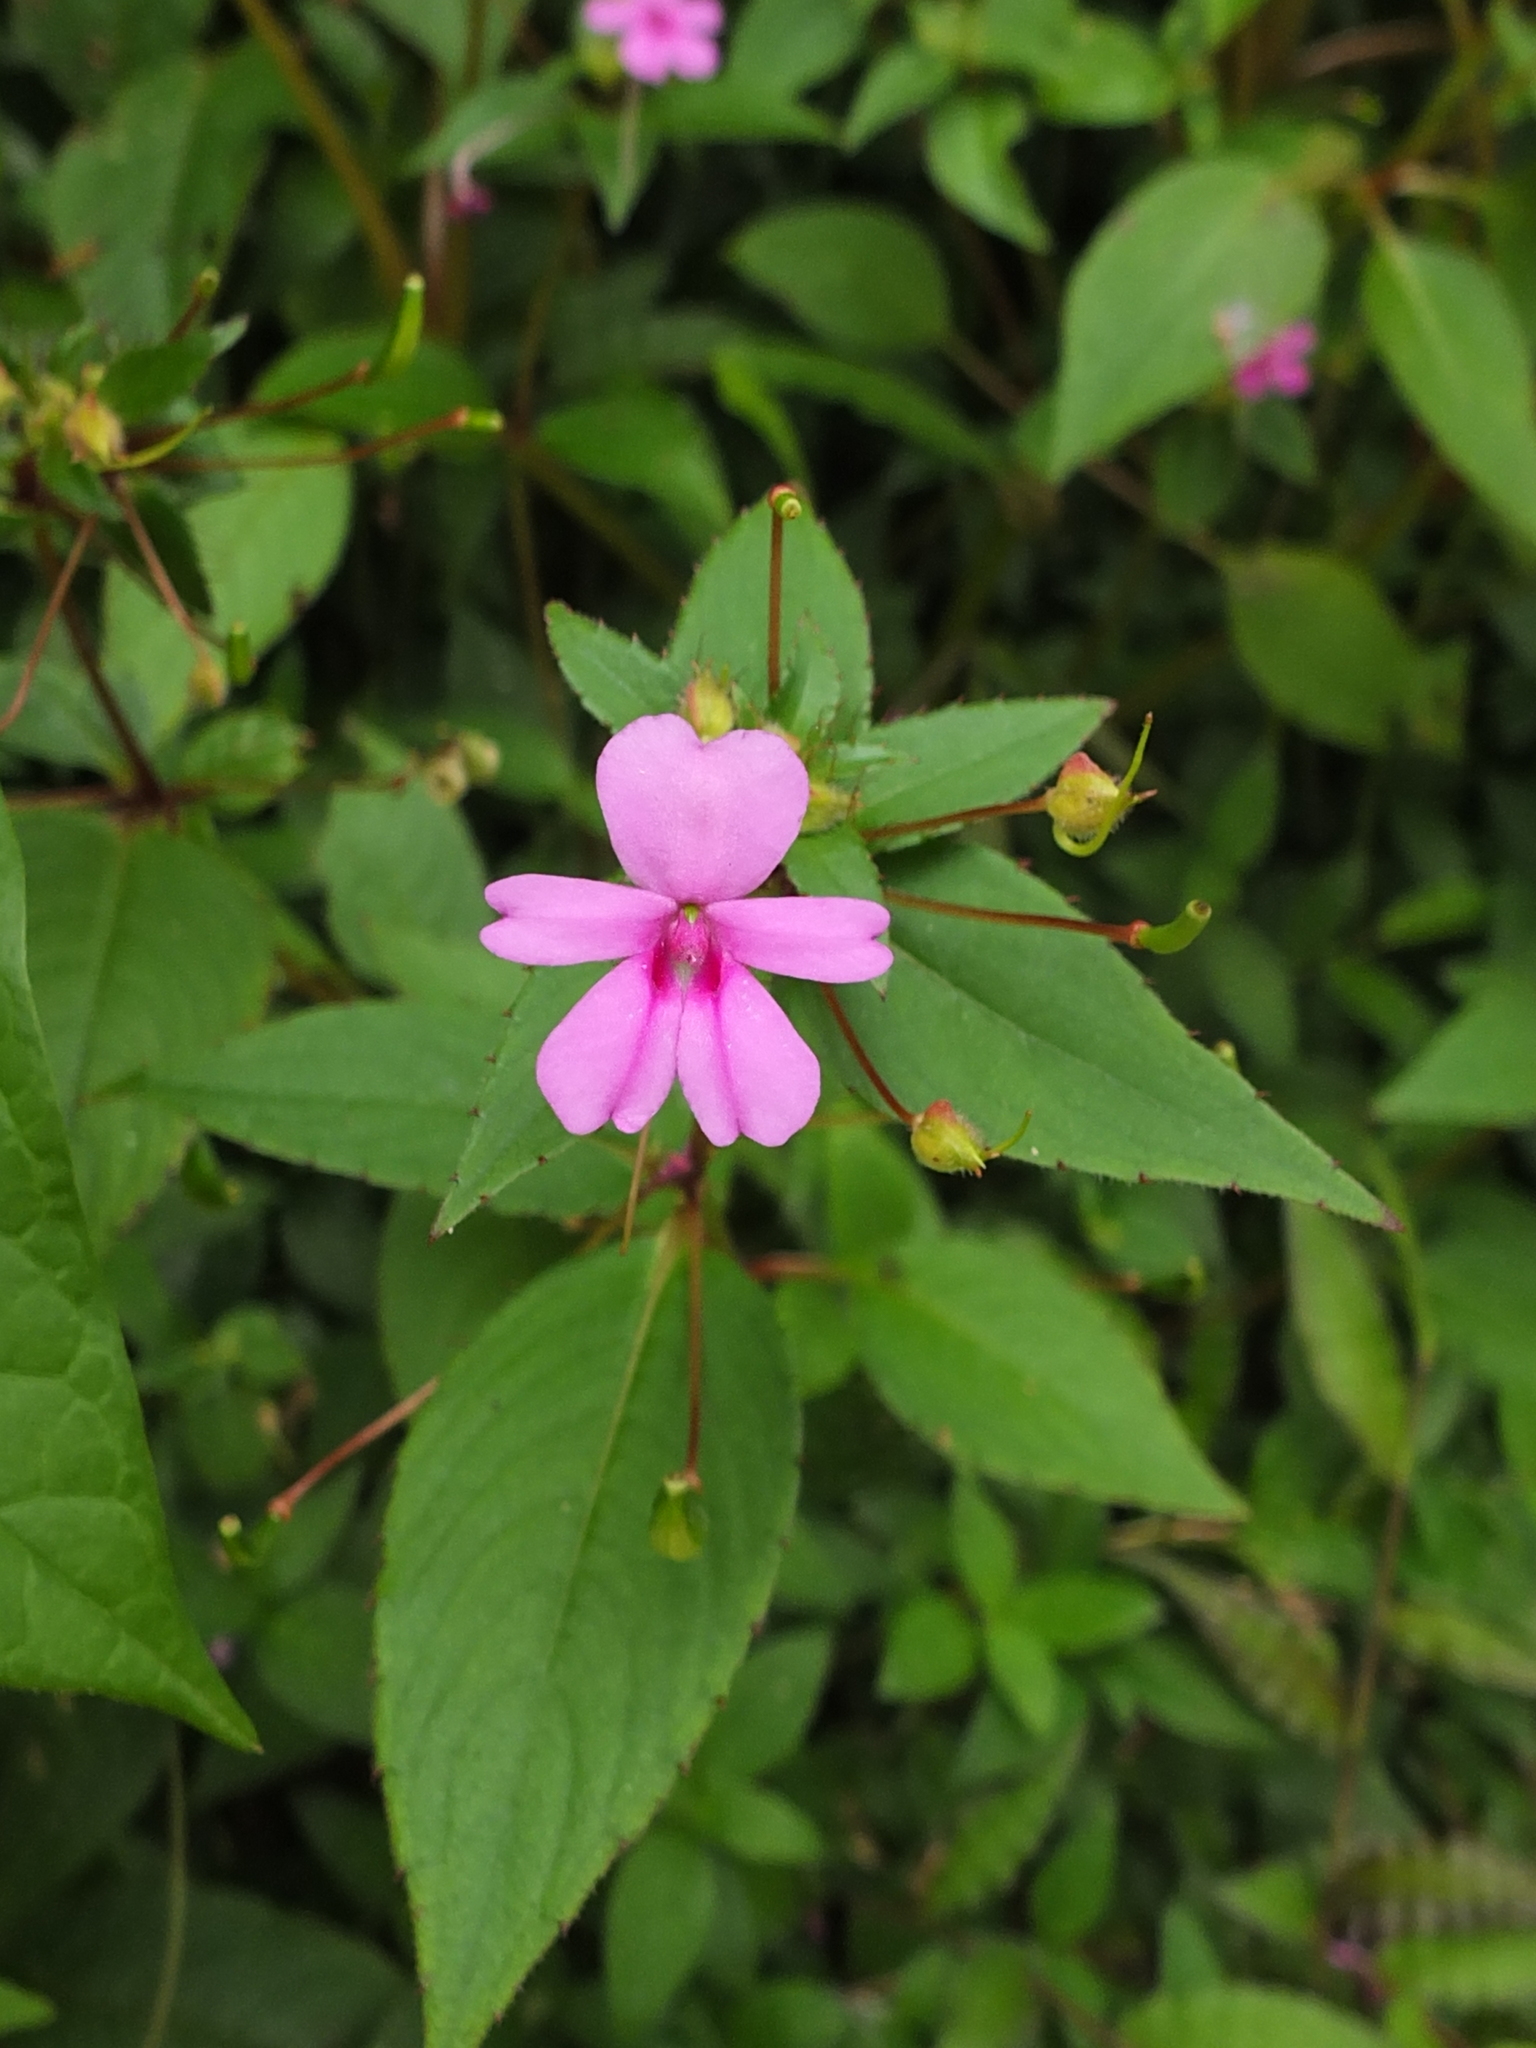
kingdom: Plantae
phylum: Tracheophyta
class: Magnoliopsida
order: Ericales
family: Balsaminaceae
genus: Impatiens
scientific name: Impatiens dasysperma
